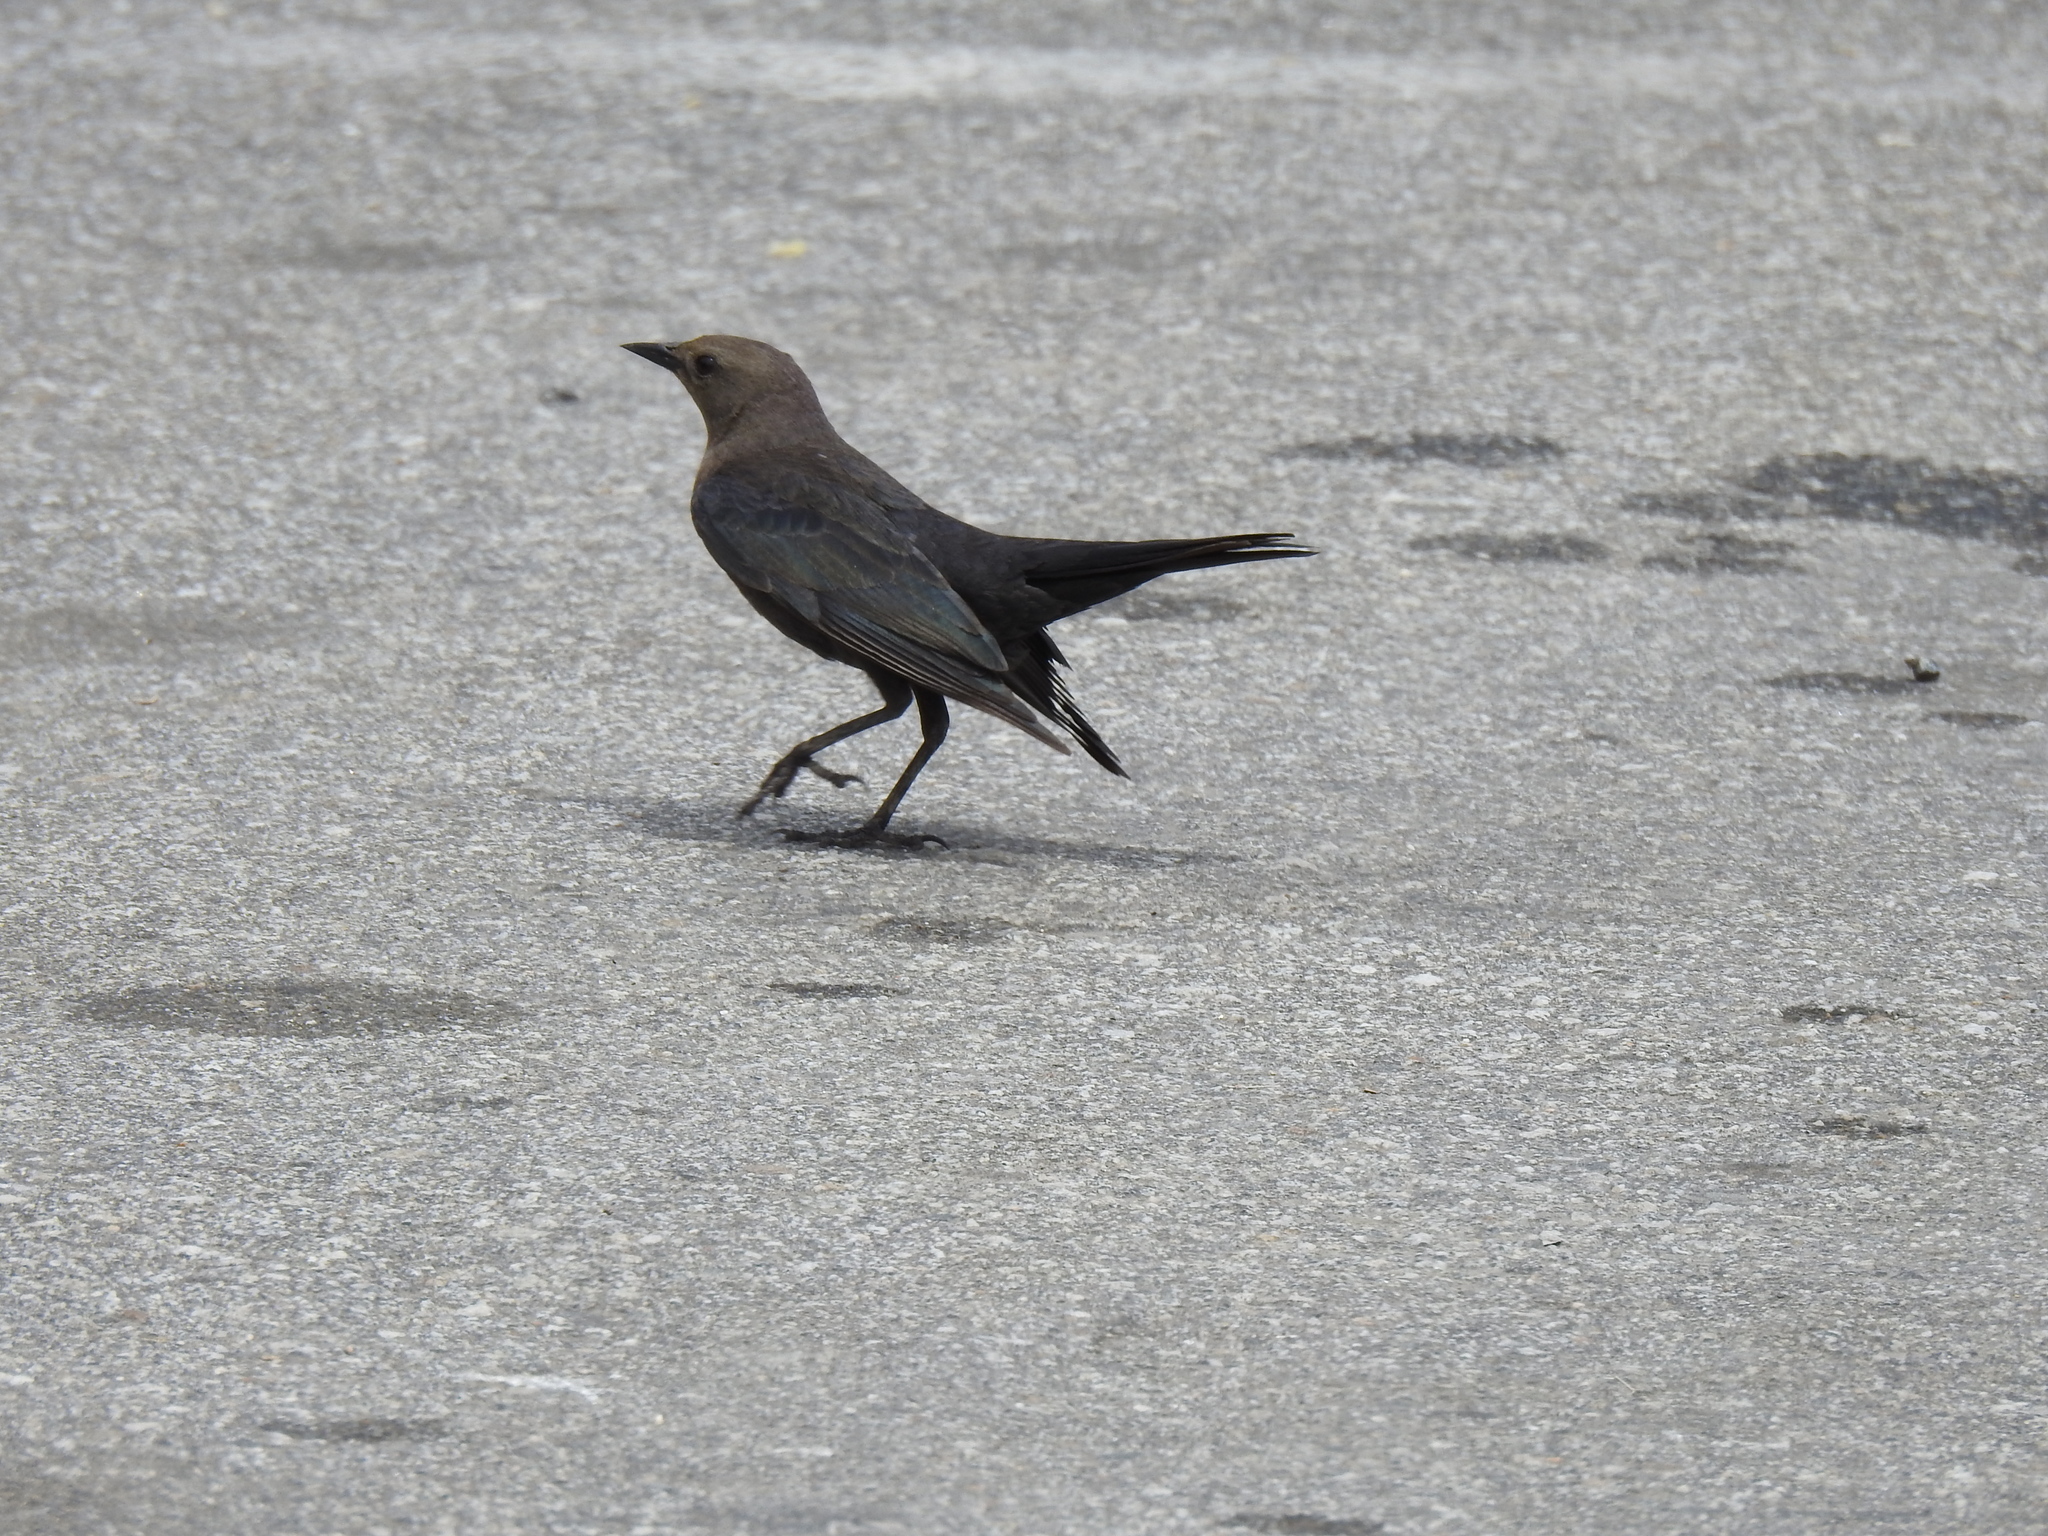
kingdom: Animalia
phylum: Chordata
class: Aves
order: Passeriformes
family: Icteridae
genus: Euphagus
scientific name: Euphagus cyanocephalus
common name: Brewer's blackbird
